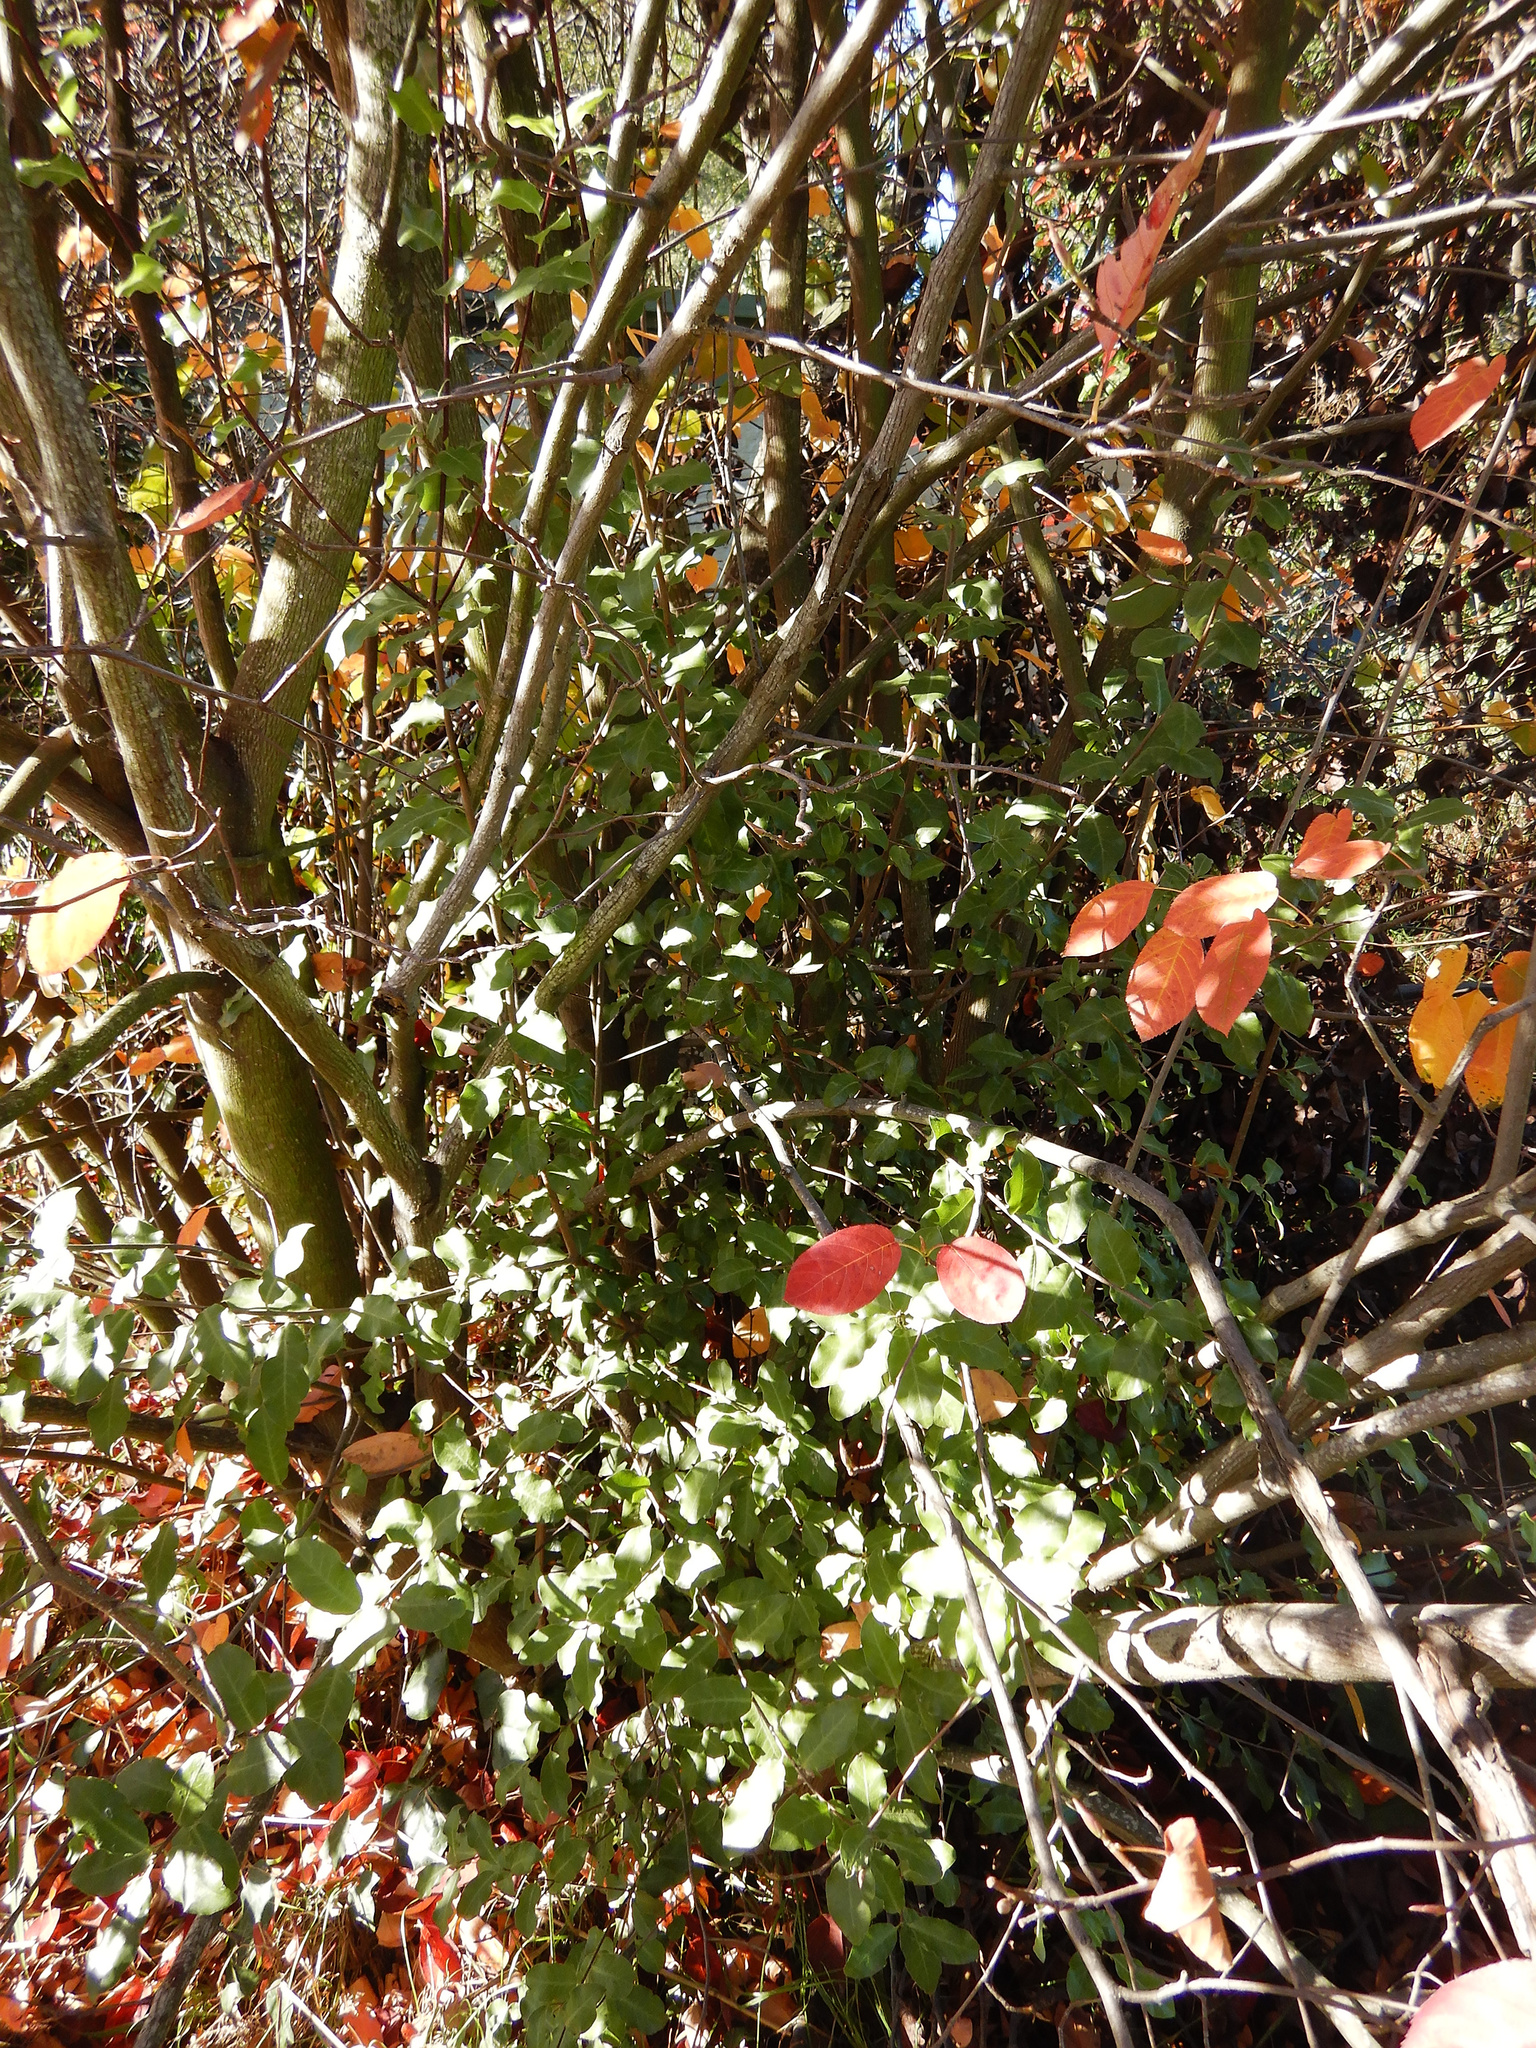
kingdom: Plantae
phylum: Tracheophyta
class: Magnoliopsida
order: Apiales
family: Pittosporaceae
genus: Pittosporum
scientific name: Pittosporum tenuifolium
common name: Kohuhu
